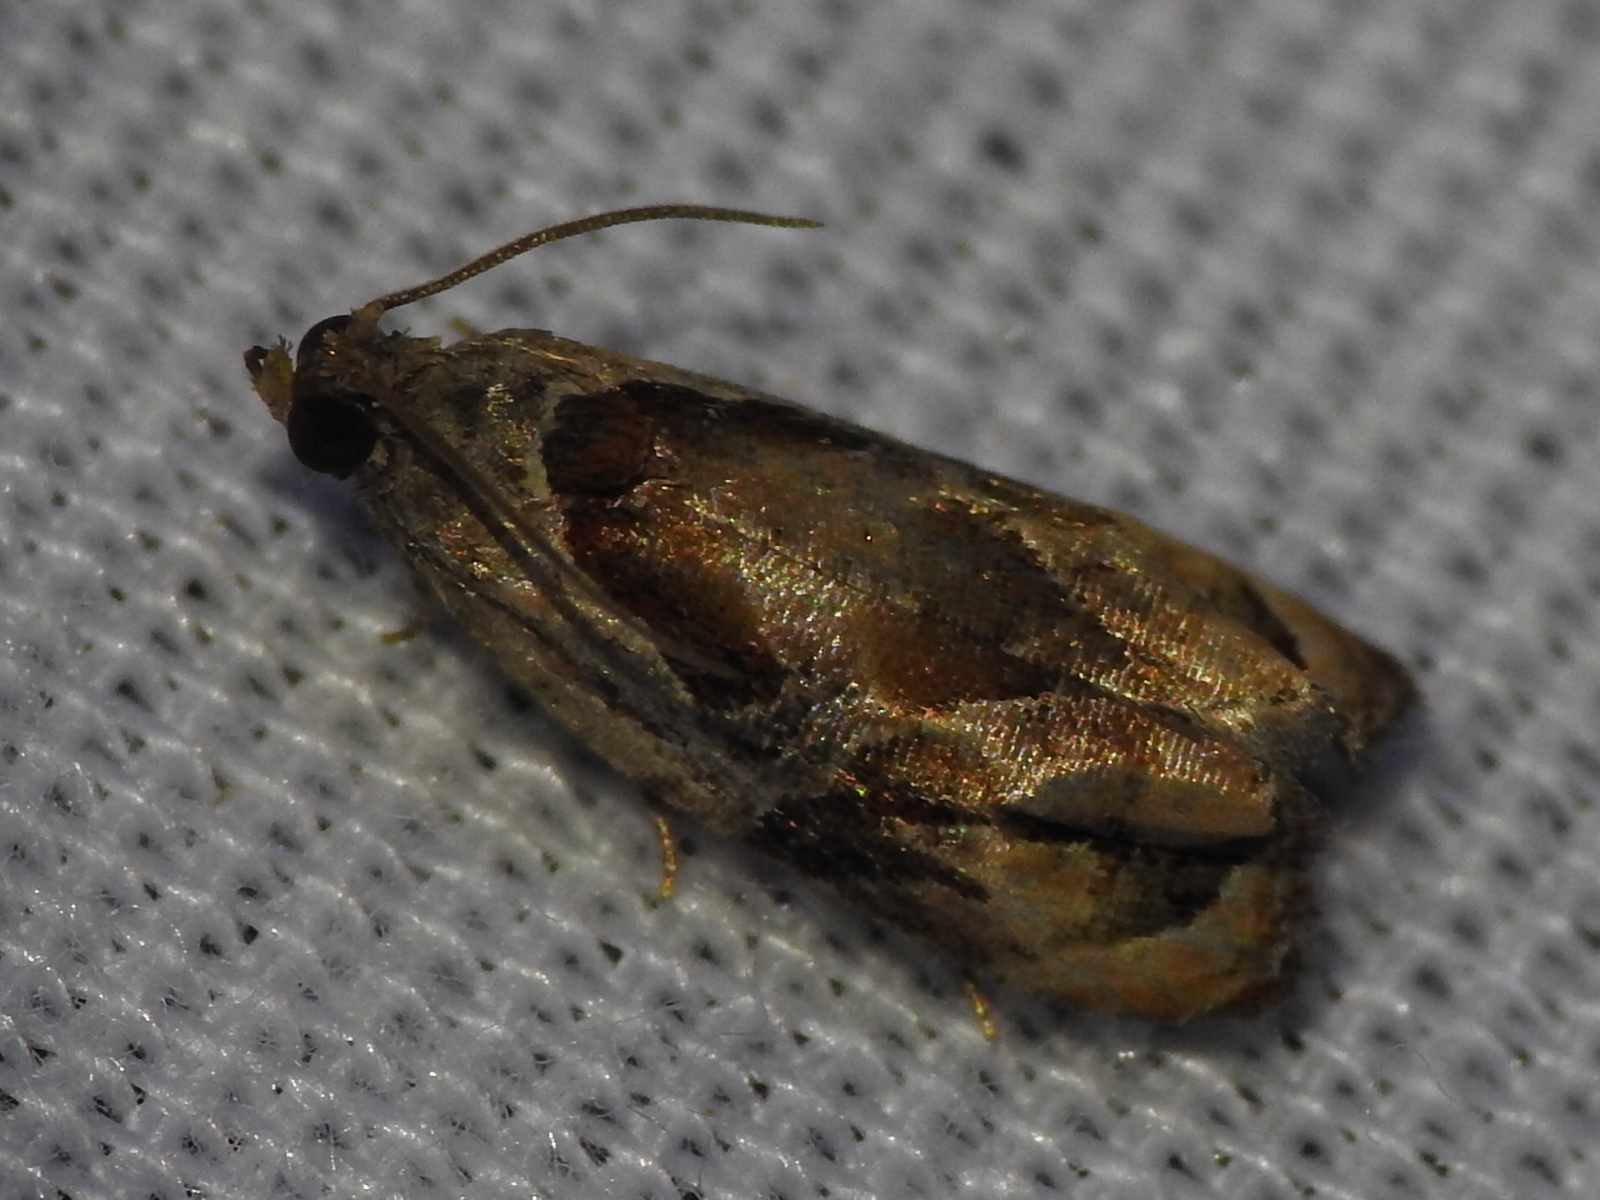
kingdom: Animalia
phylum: Arthropoda
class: Insecta
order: Lepidoptera
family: Tortricidae
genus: Zomaria
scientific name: Zomaria interruptolineana
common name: Broken-lined zomaria moth
